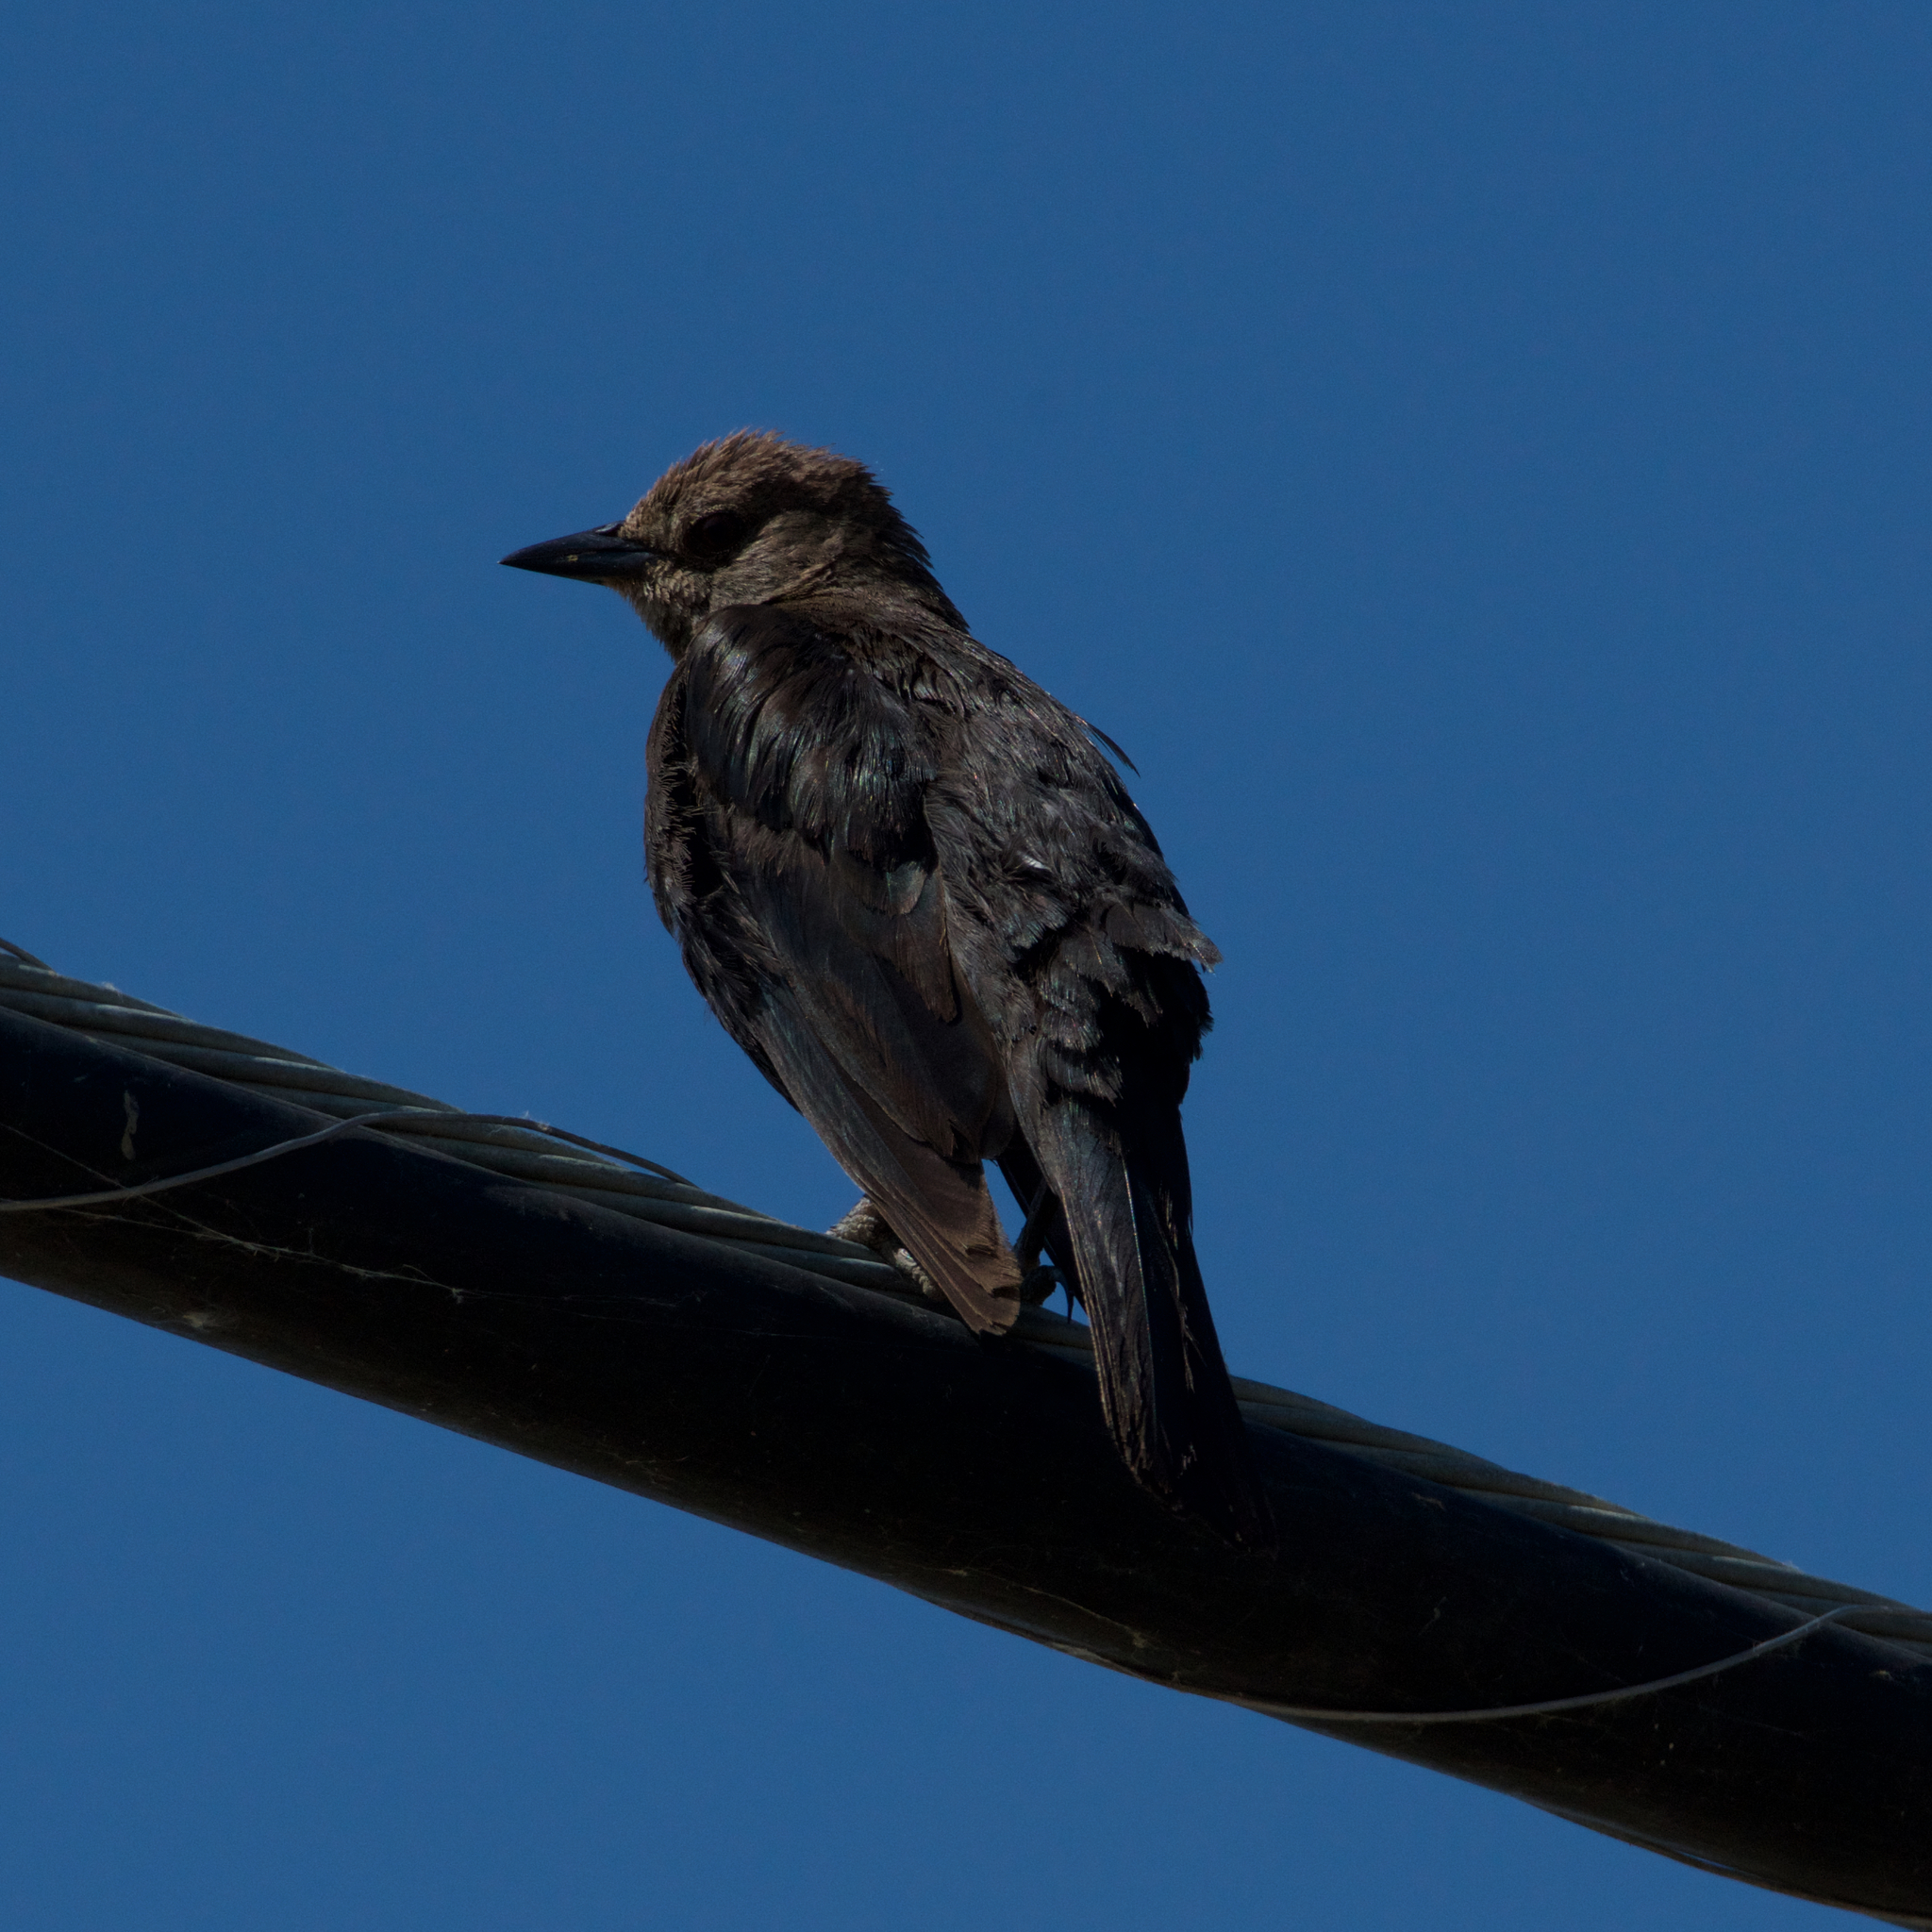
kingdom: Animalia
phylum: Chordata
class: Aves
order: Passeriformes
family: Icteridae
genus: Euphagus
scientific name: Euphagus cyanocephalus
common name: Brewer's blackbird
